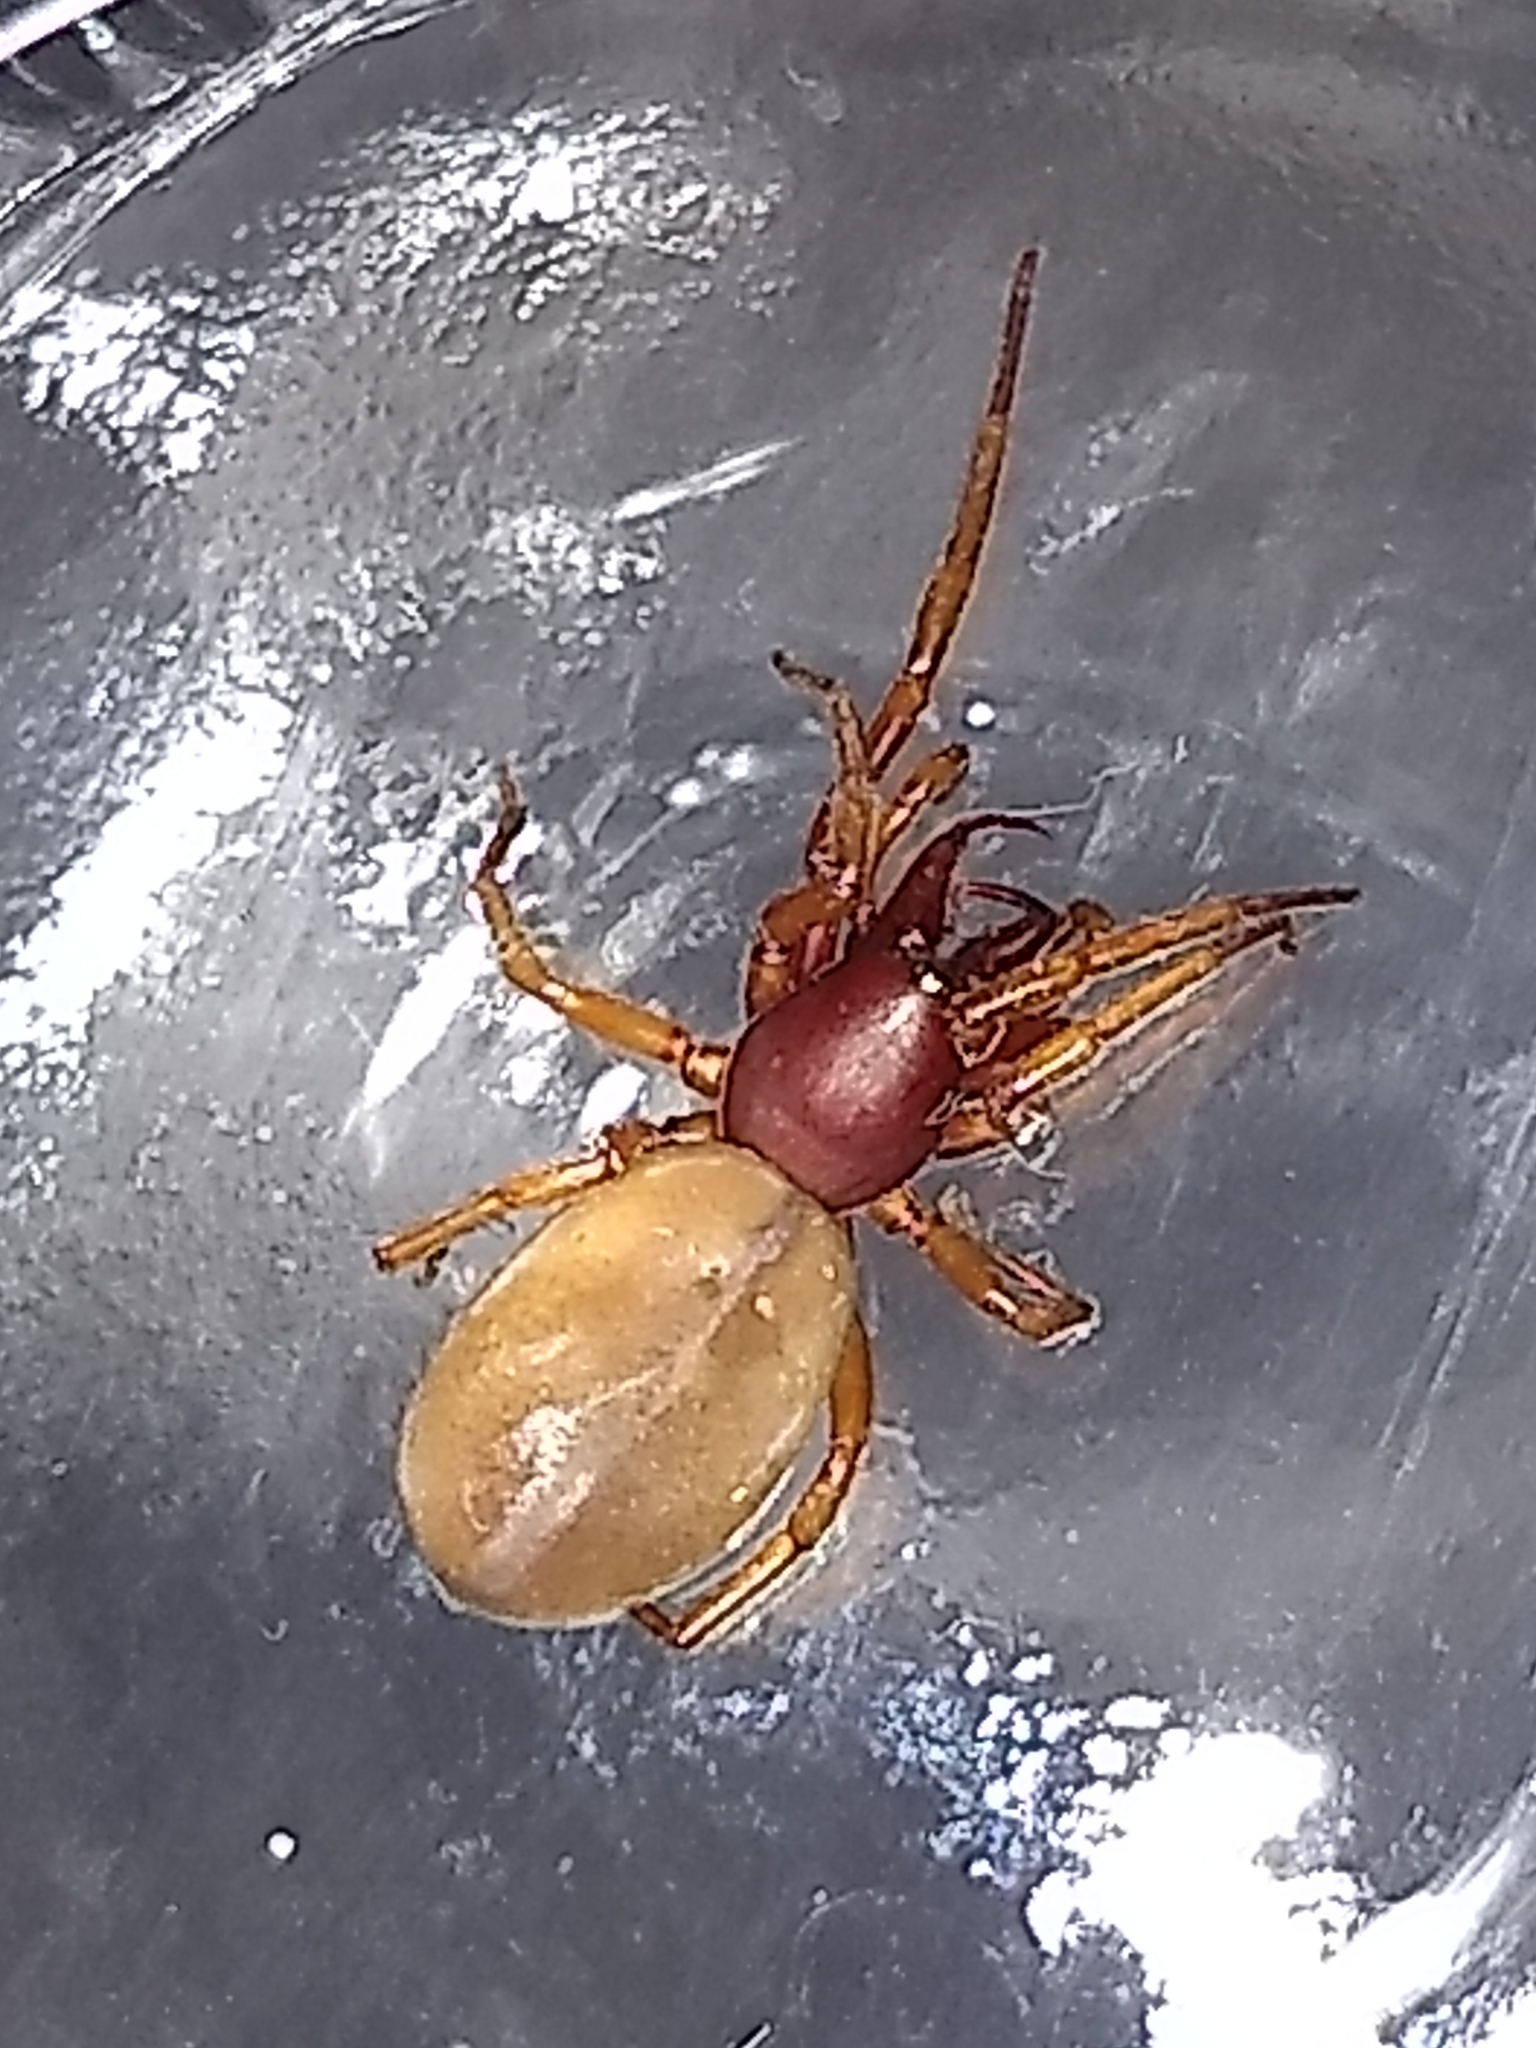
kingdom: Animalia
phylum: Arthropoda
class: Arachnida
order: Araneae
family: Dysderidae
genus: Dysdera
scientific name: Dysdera crocata
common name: Woodlouse spider
